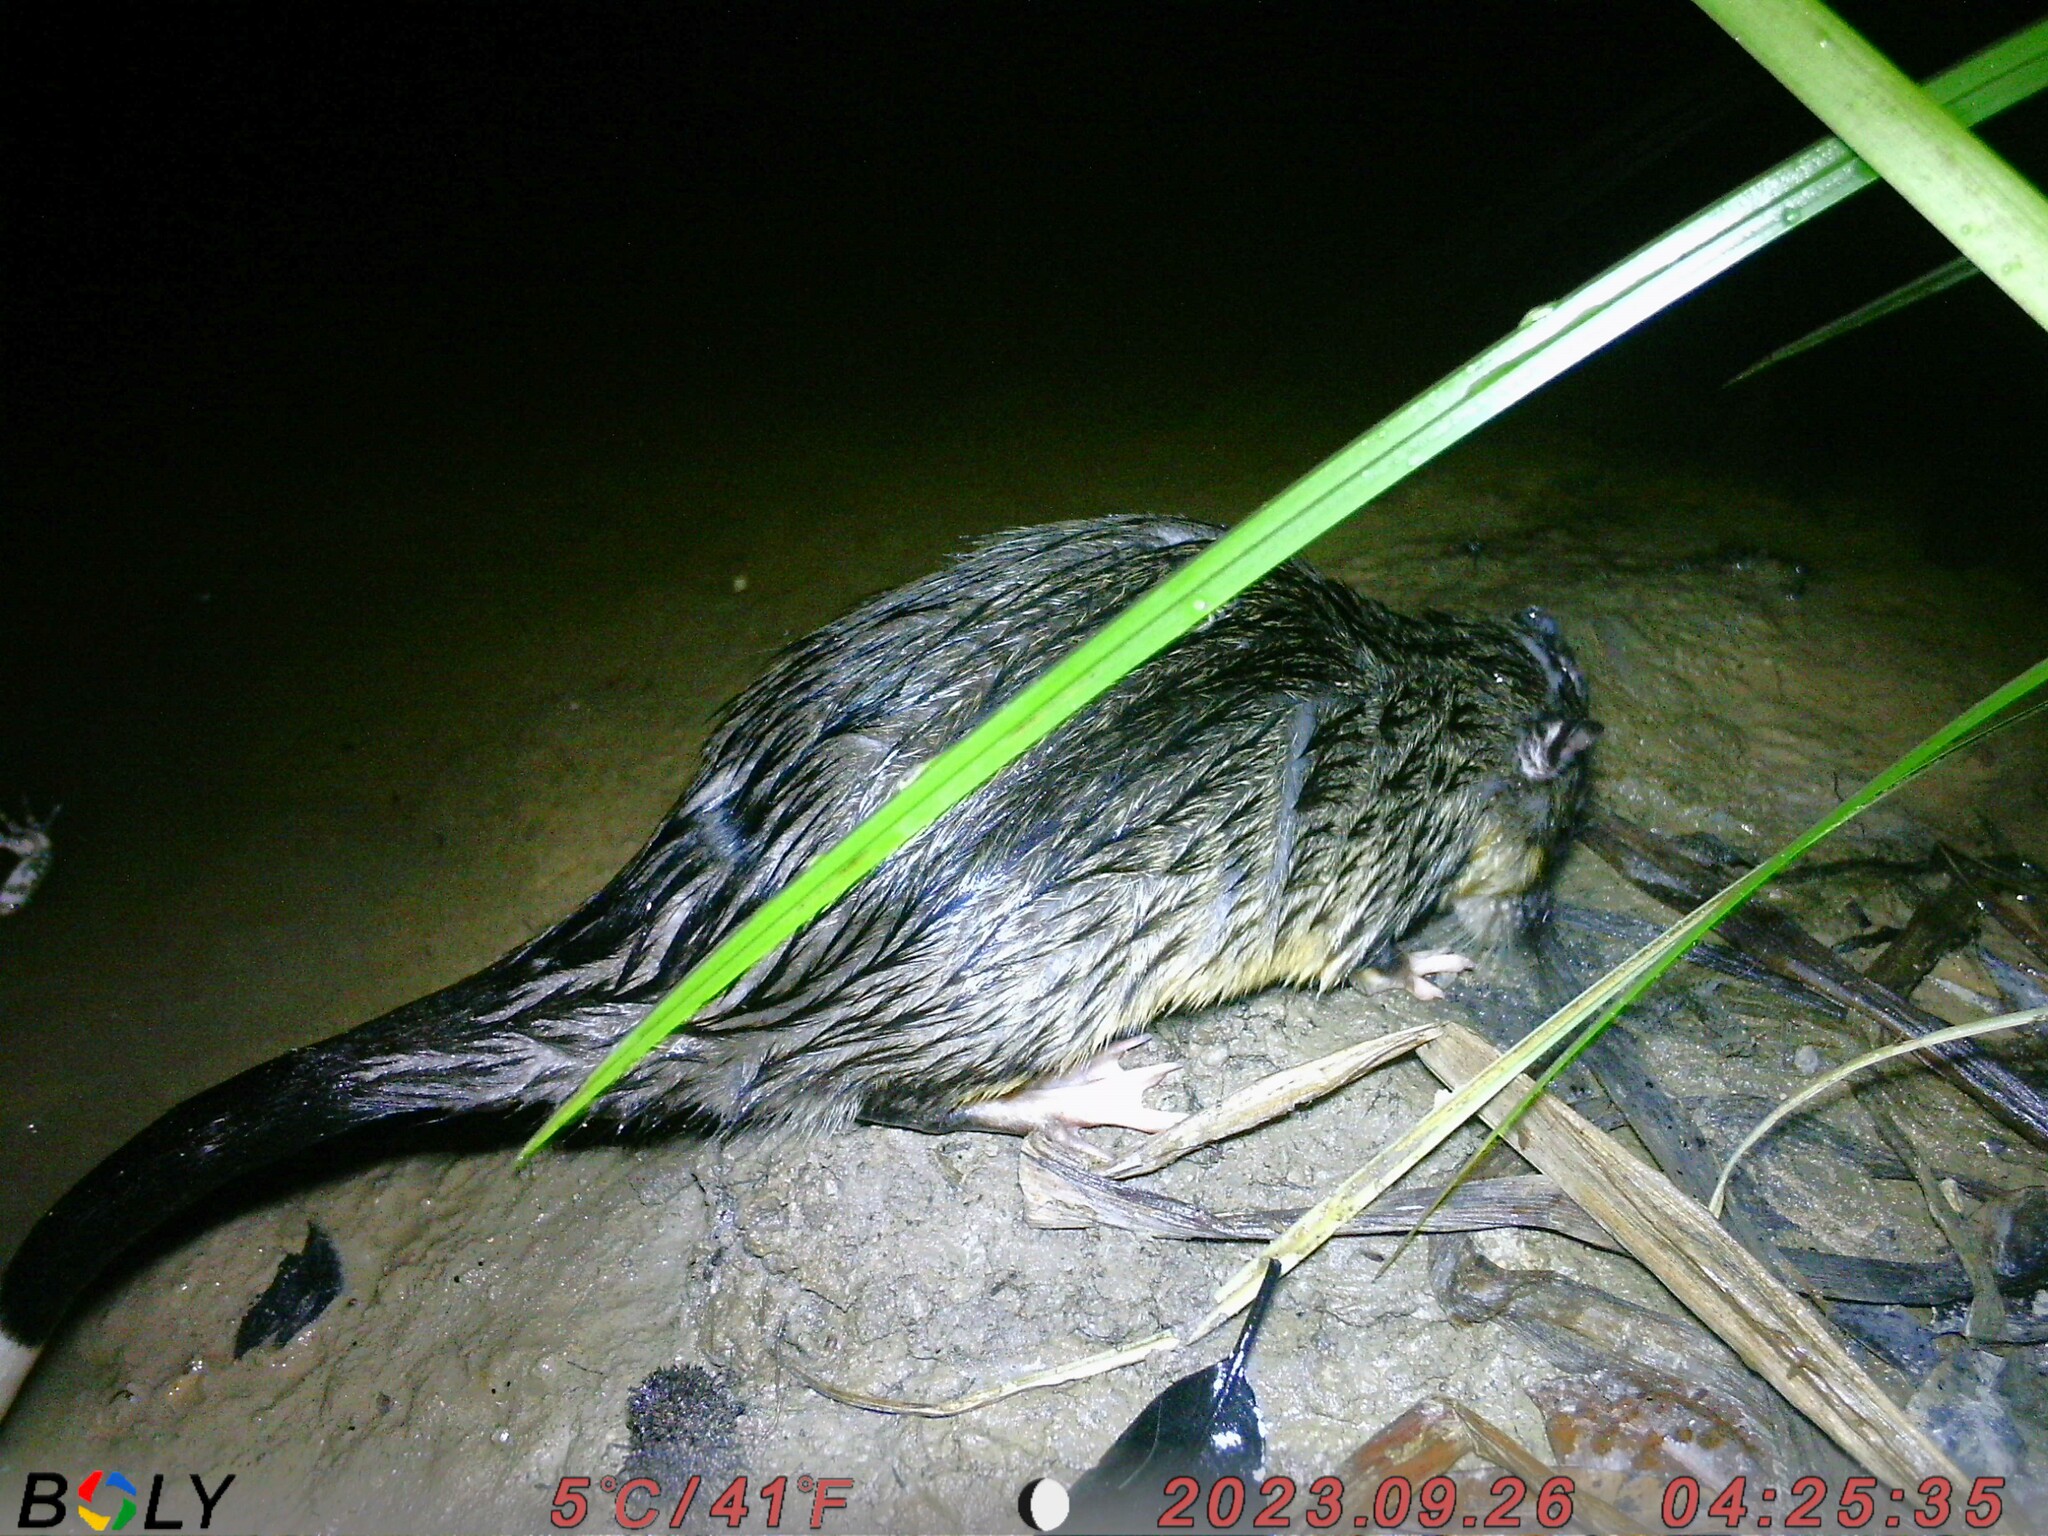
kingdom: Animalia
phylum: Chordata
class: Mammalia
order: Rodentia
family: Muridae
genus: Hydromys
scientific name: Hydromys chrysogaster
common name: Common water rat
